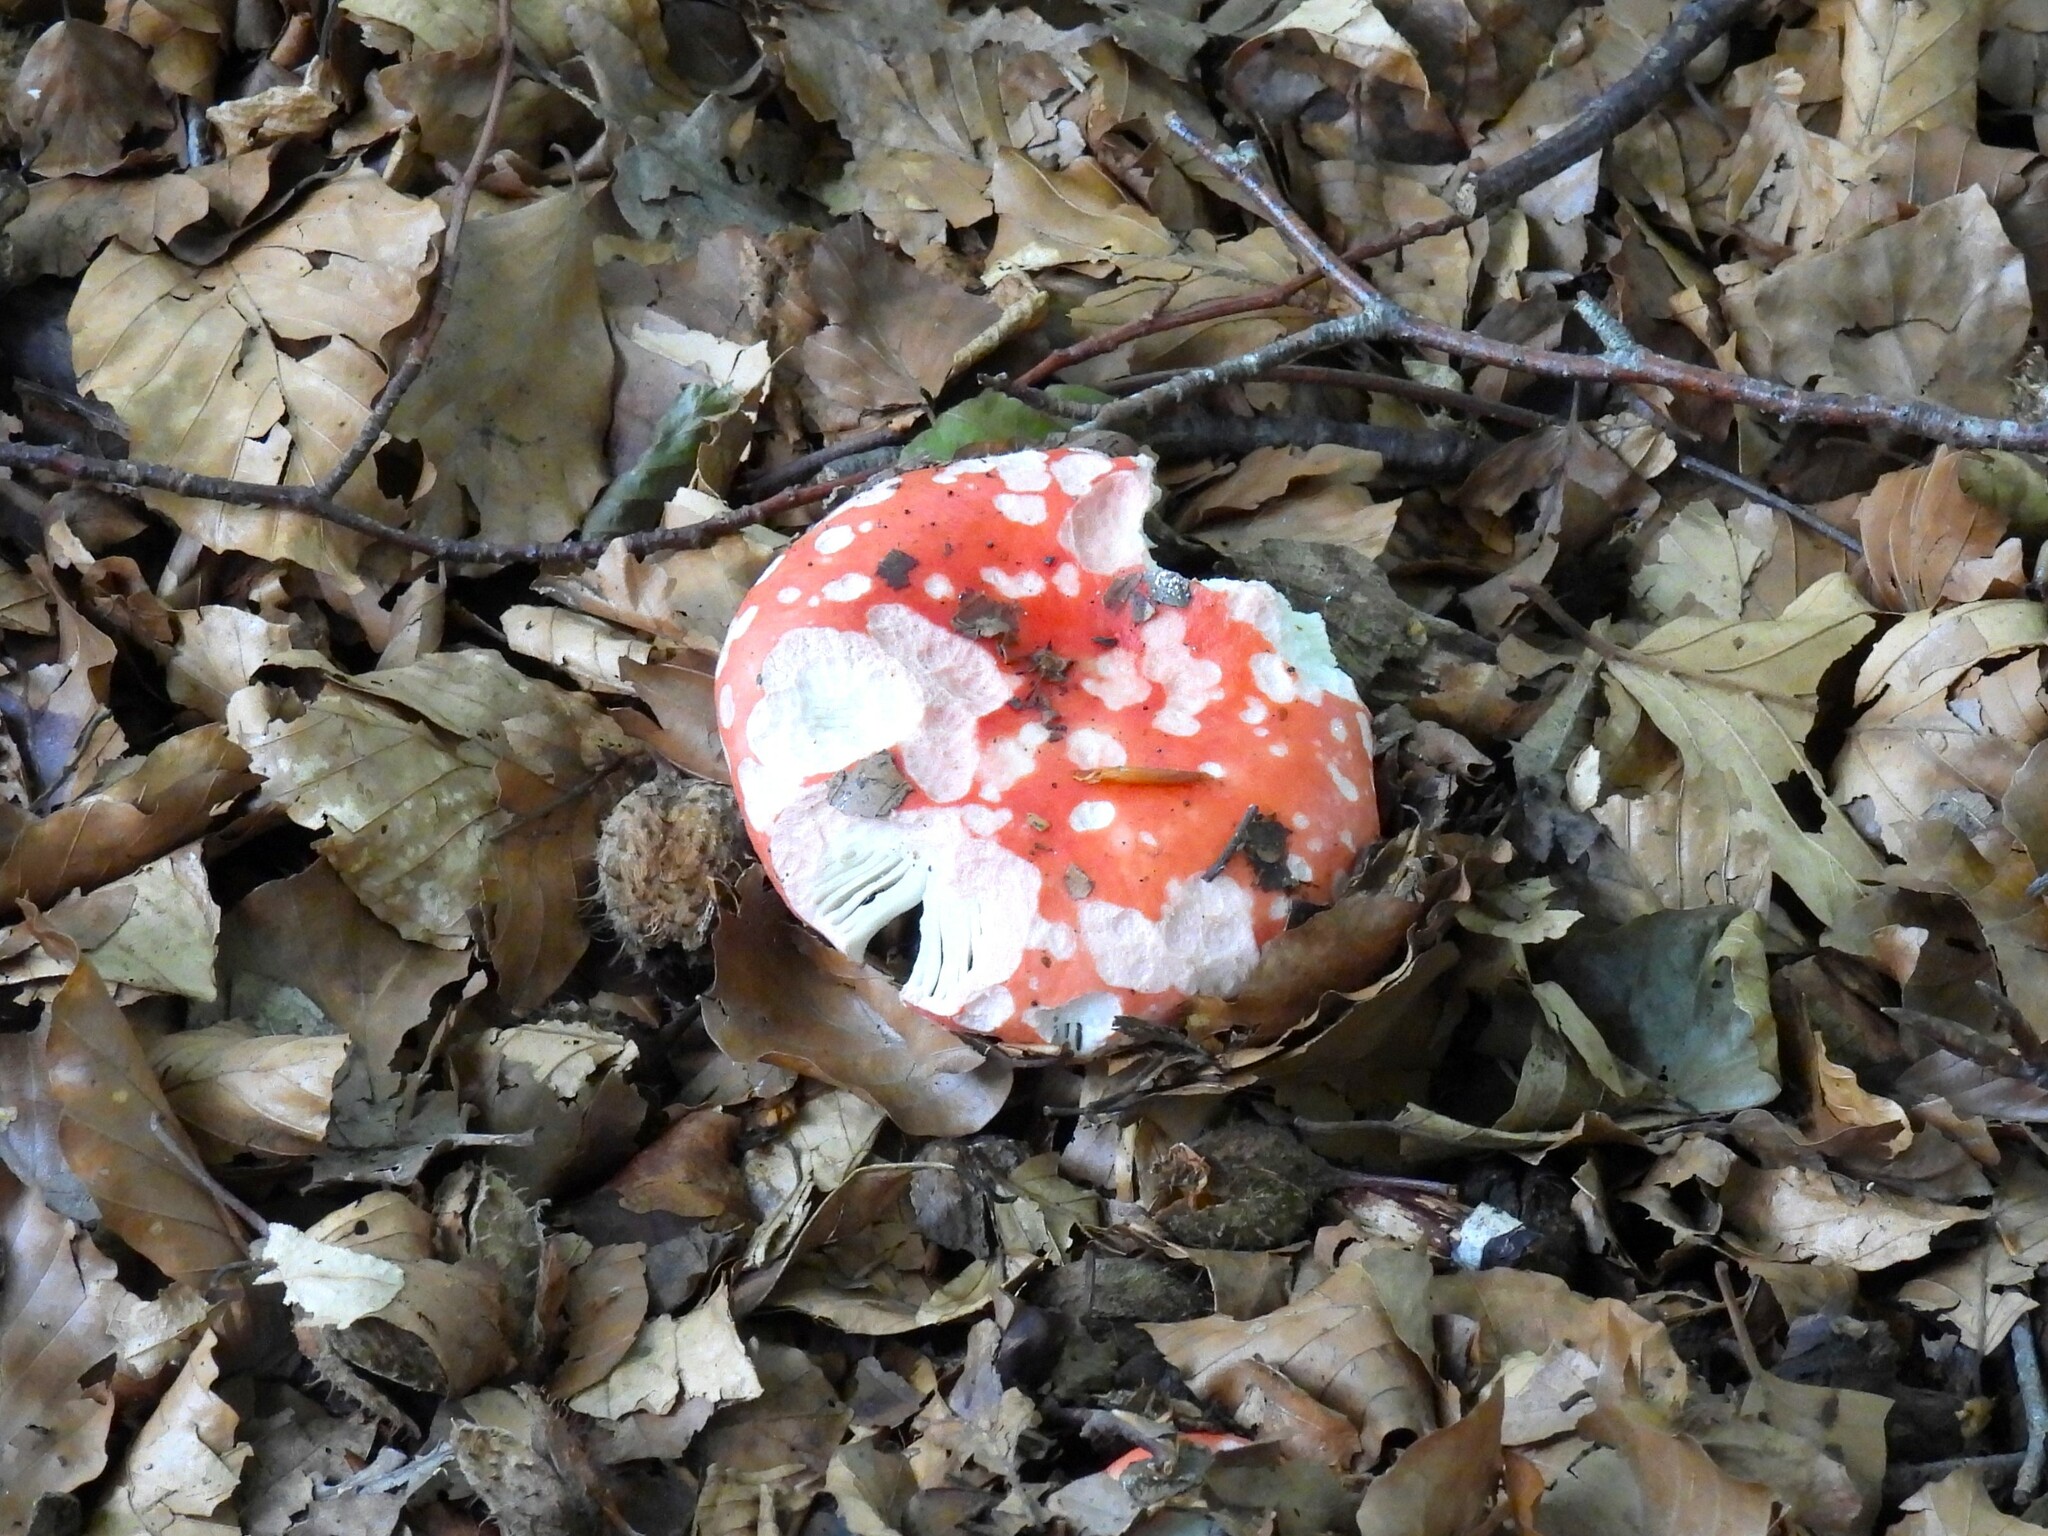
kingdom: Fungi
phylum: Basidiomycota
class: Agaricomycetes
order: Agaricales
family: Amanitaceae
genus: Amanita
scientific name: Amanita muscaria
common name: Fly agaric
